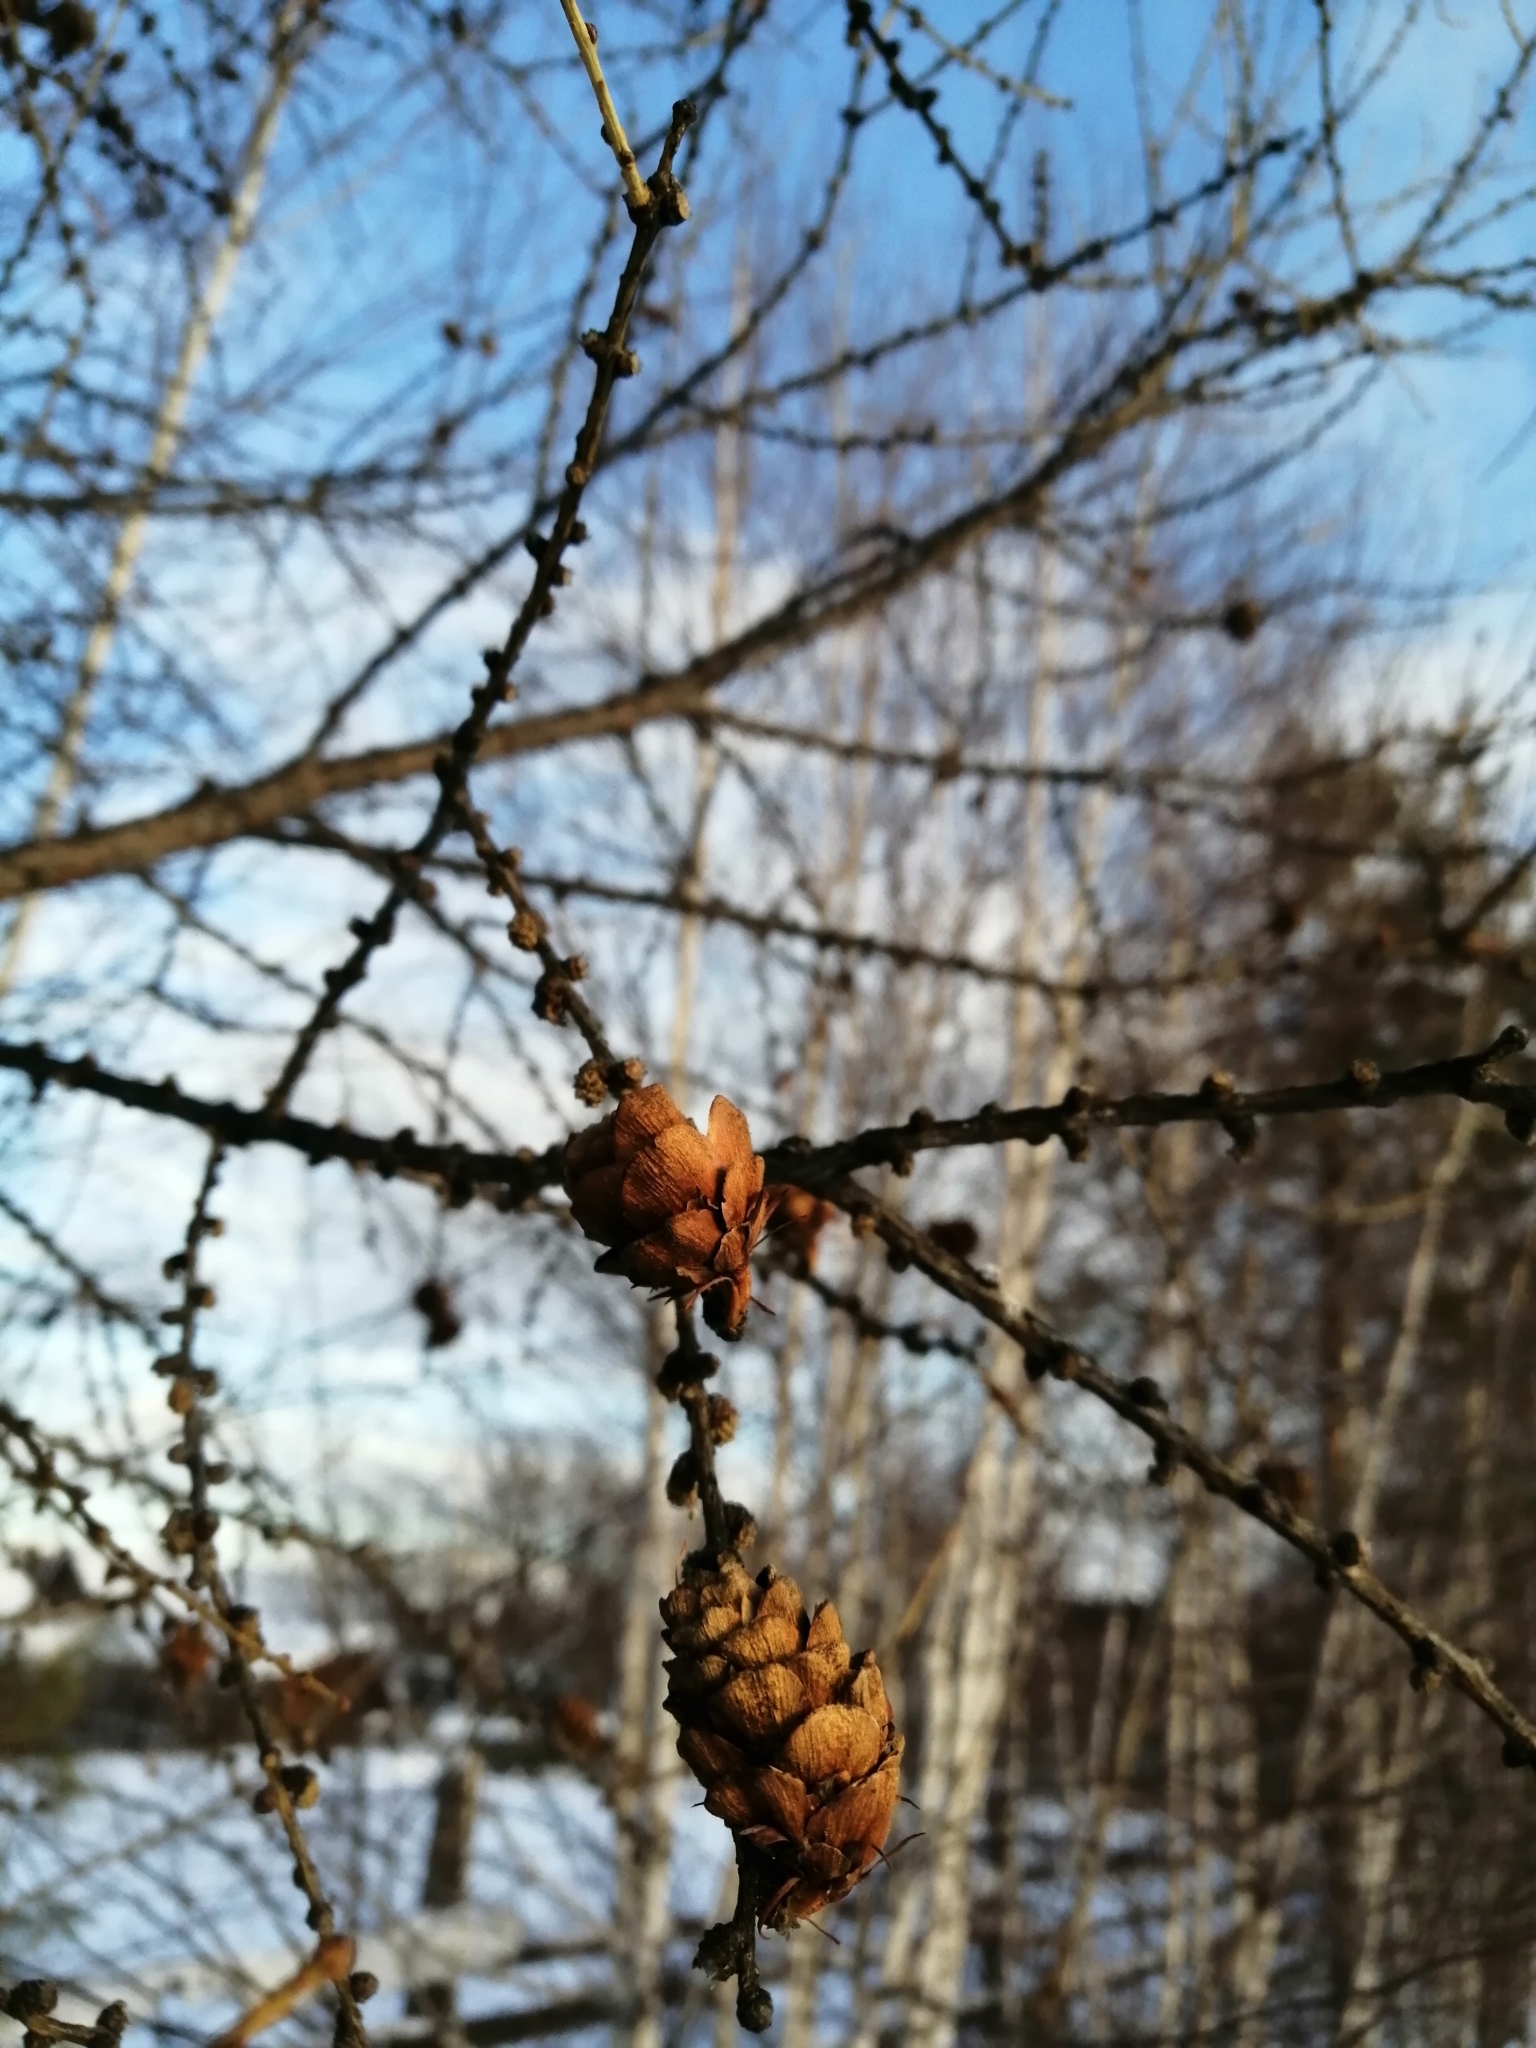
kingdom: Plantae
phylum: Tracheophyta
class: Pinopsida
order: Pinales
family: Pinaceae
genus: Larix
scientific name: Larix sibirica
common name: Siberian larch
